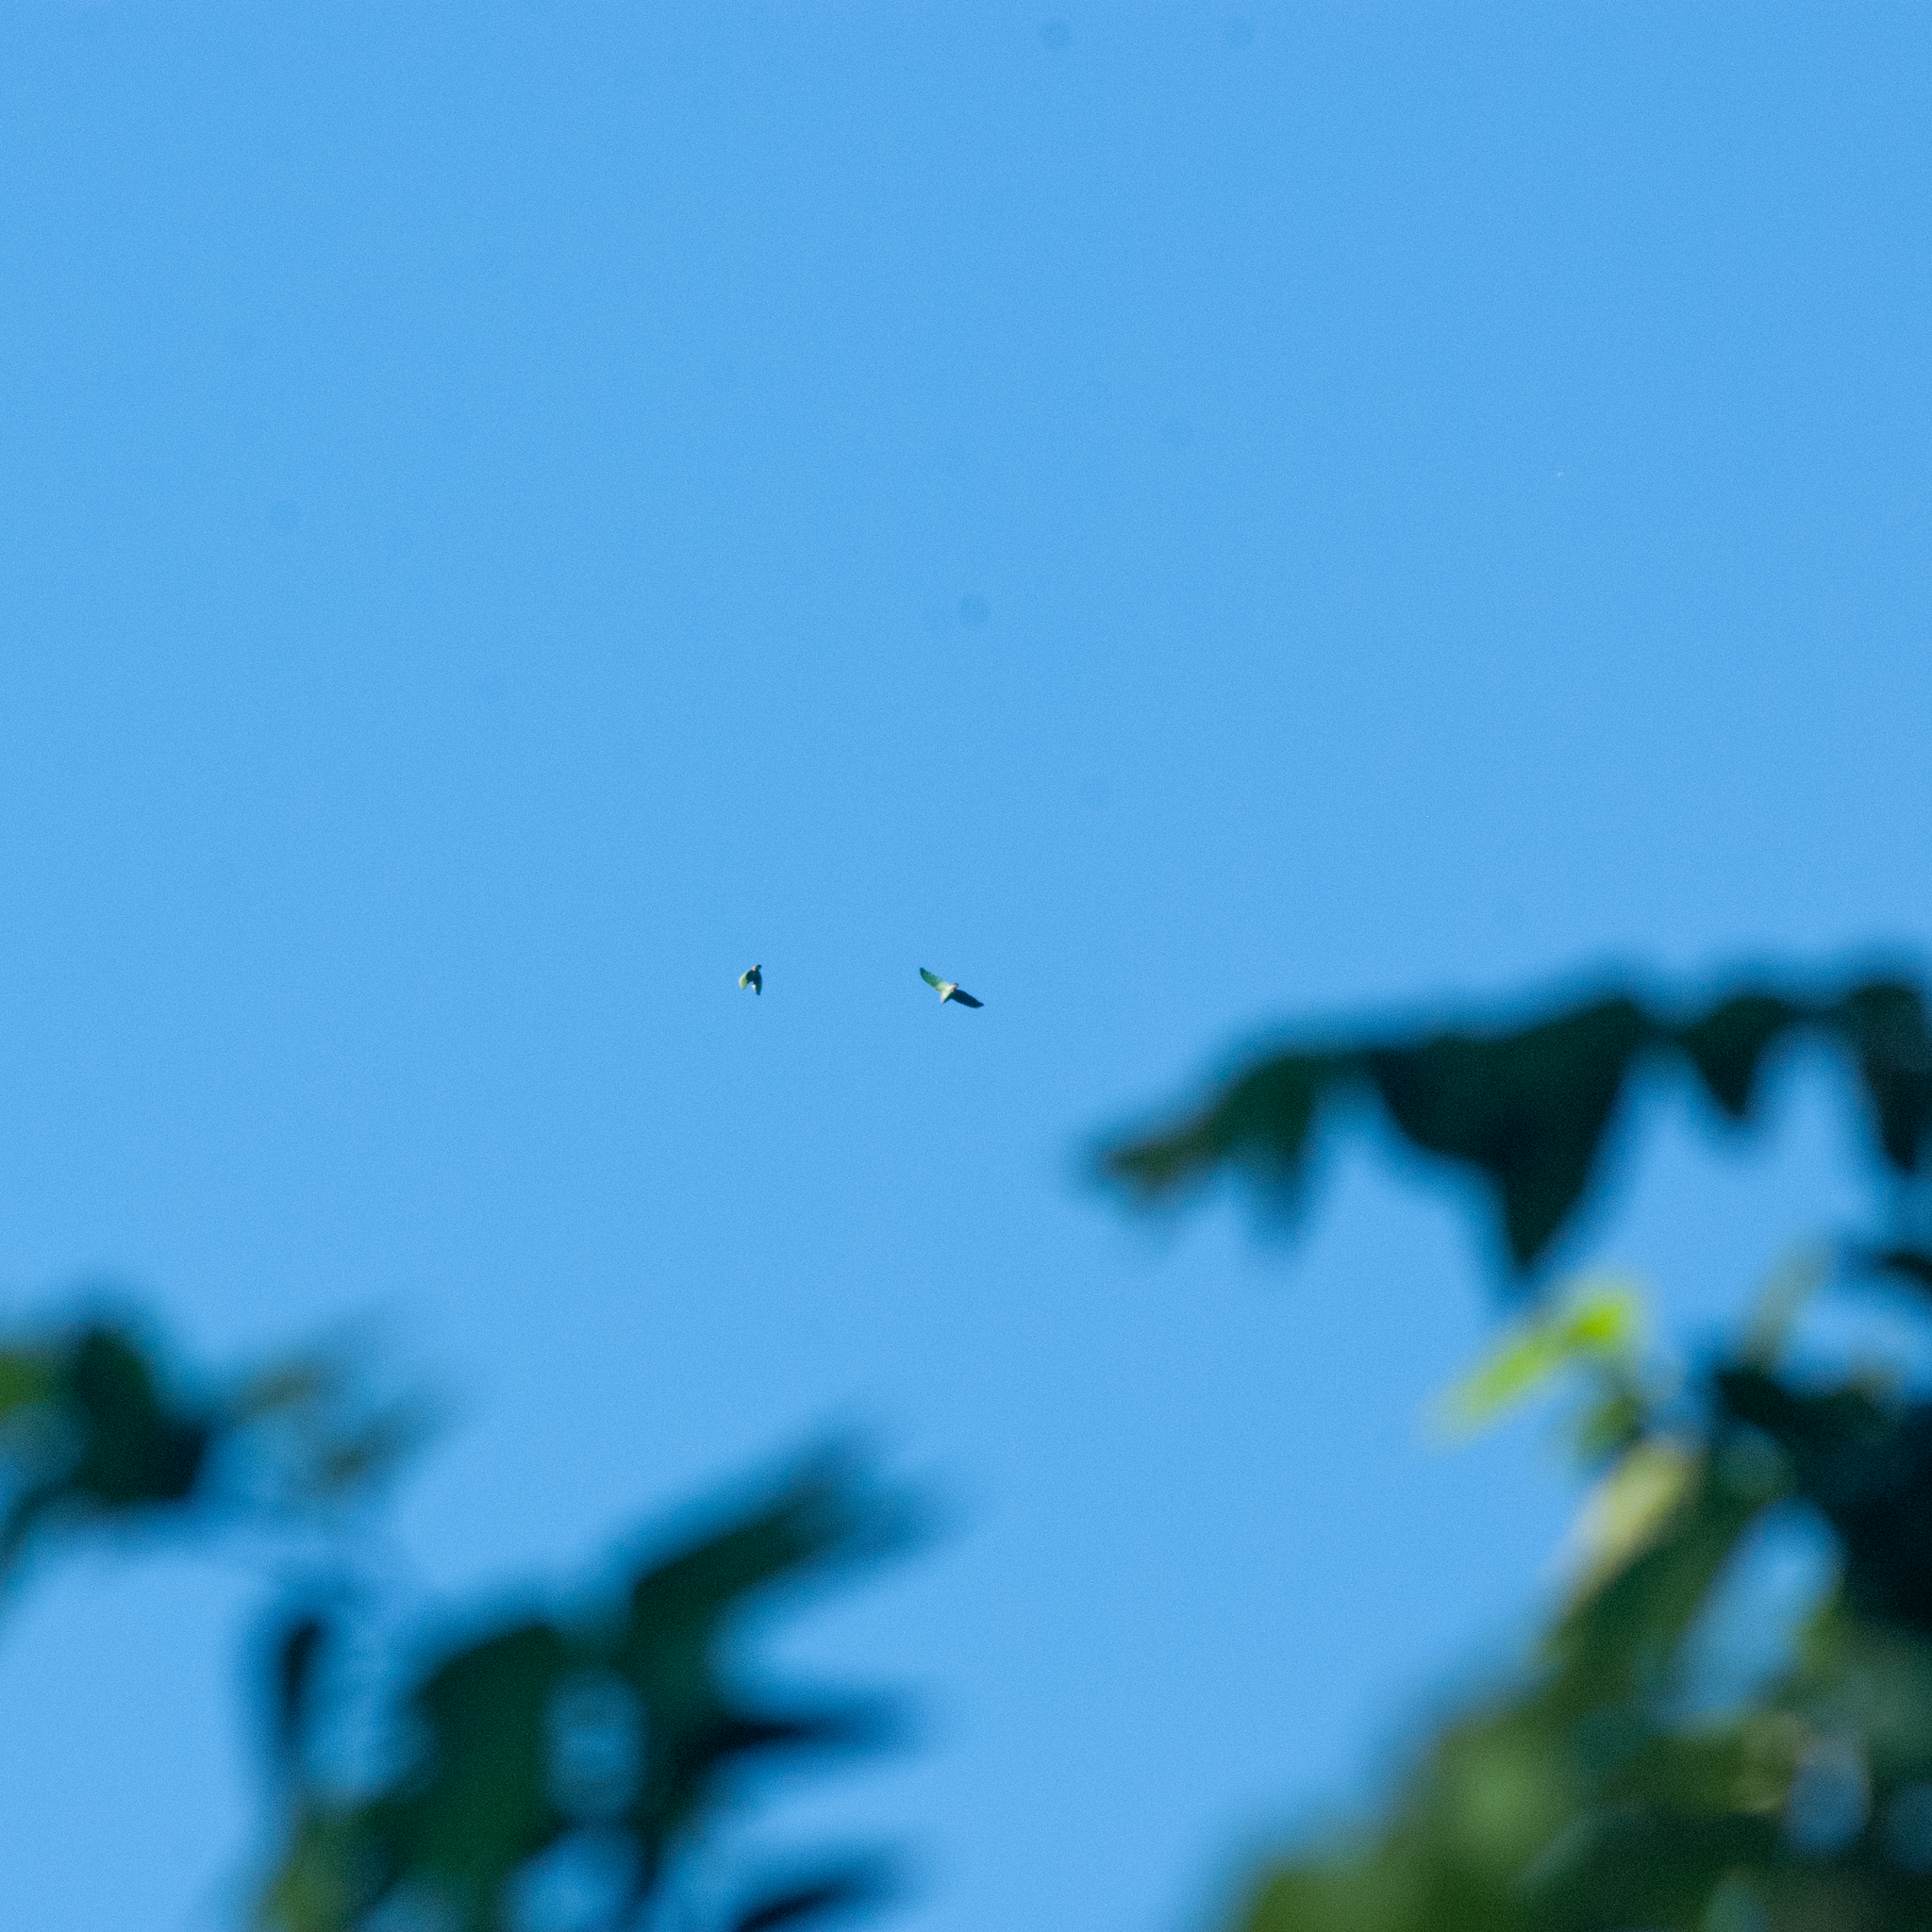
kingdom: Animalia
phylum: Chordata
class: Aves
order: Psittaciformes
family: Psittacidae
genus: Amazona
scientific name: Amazona
